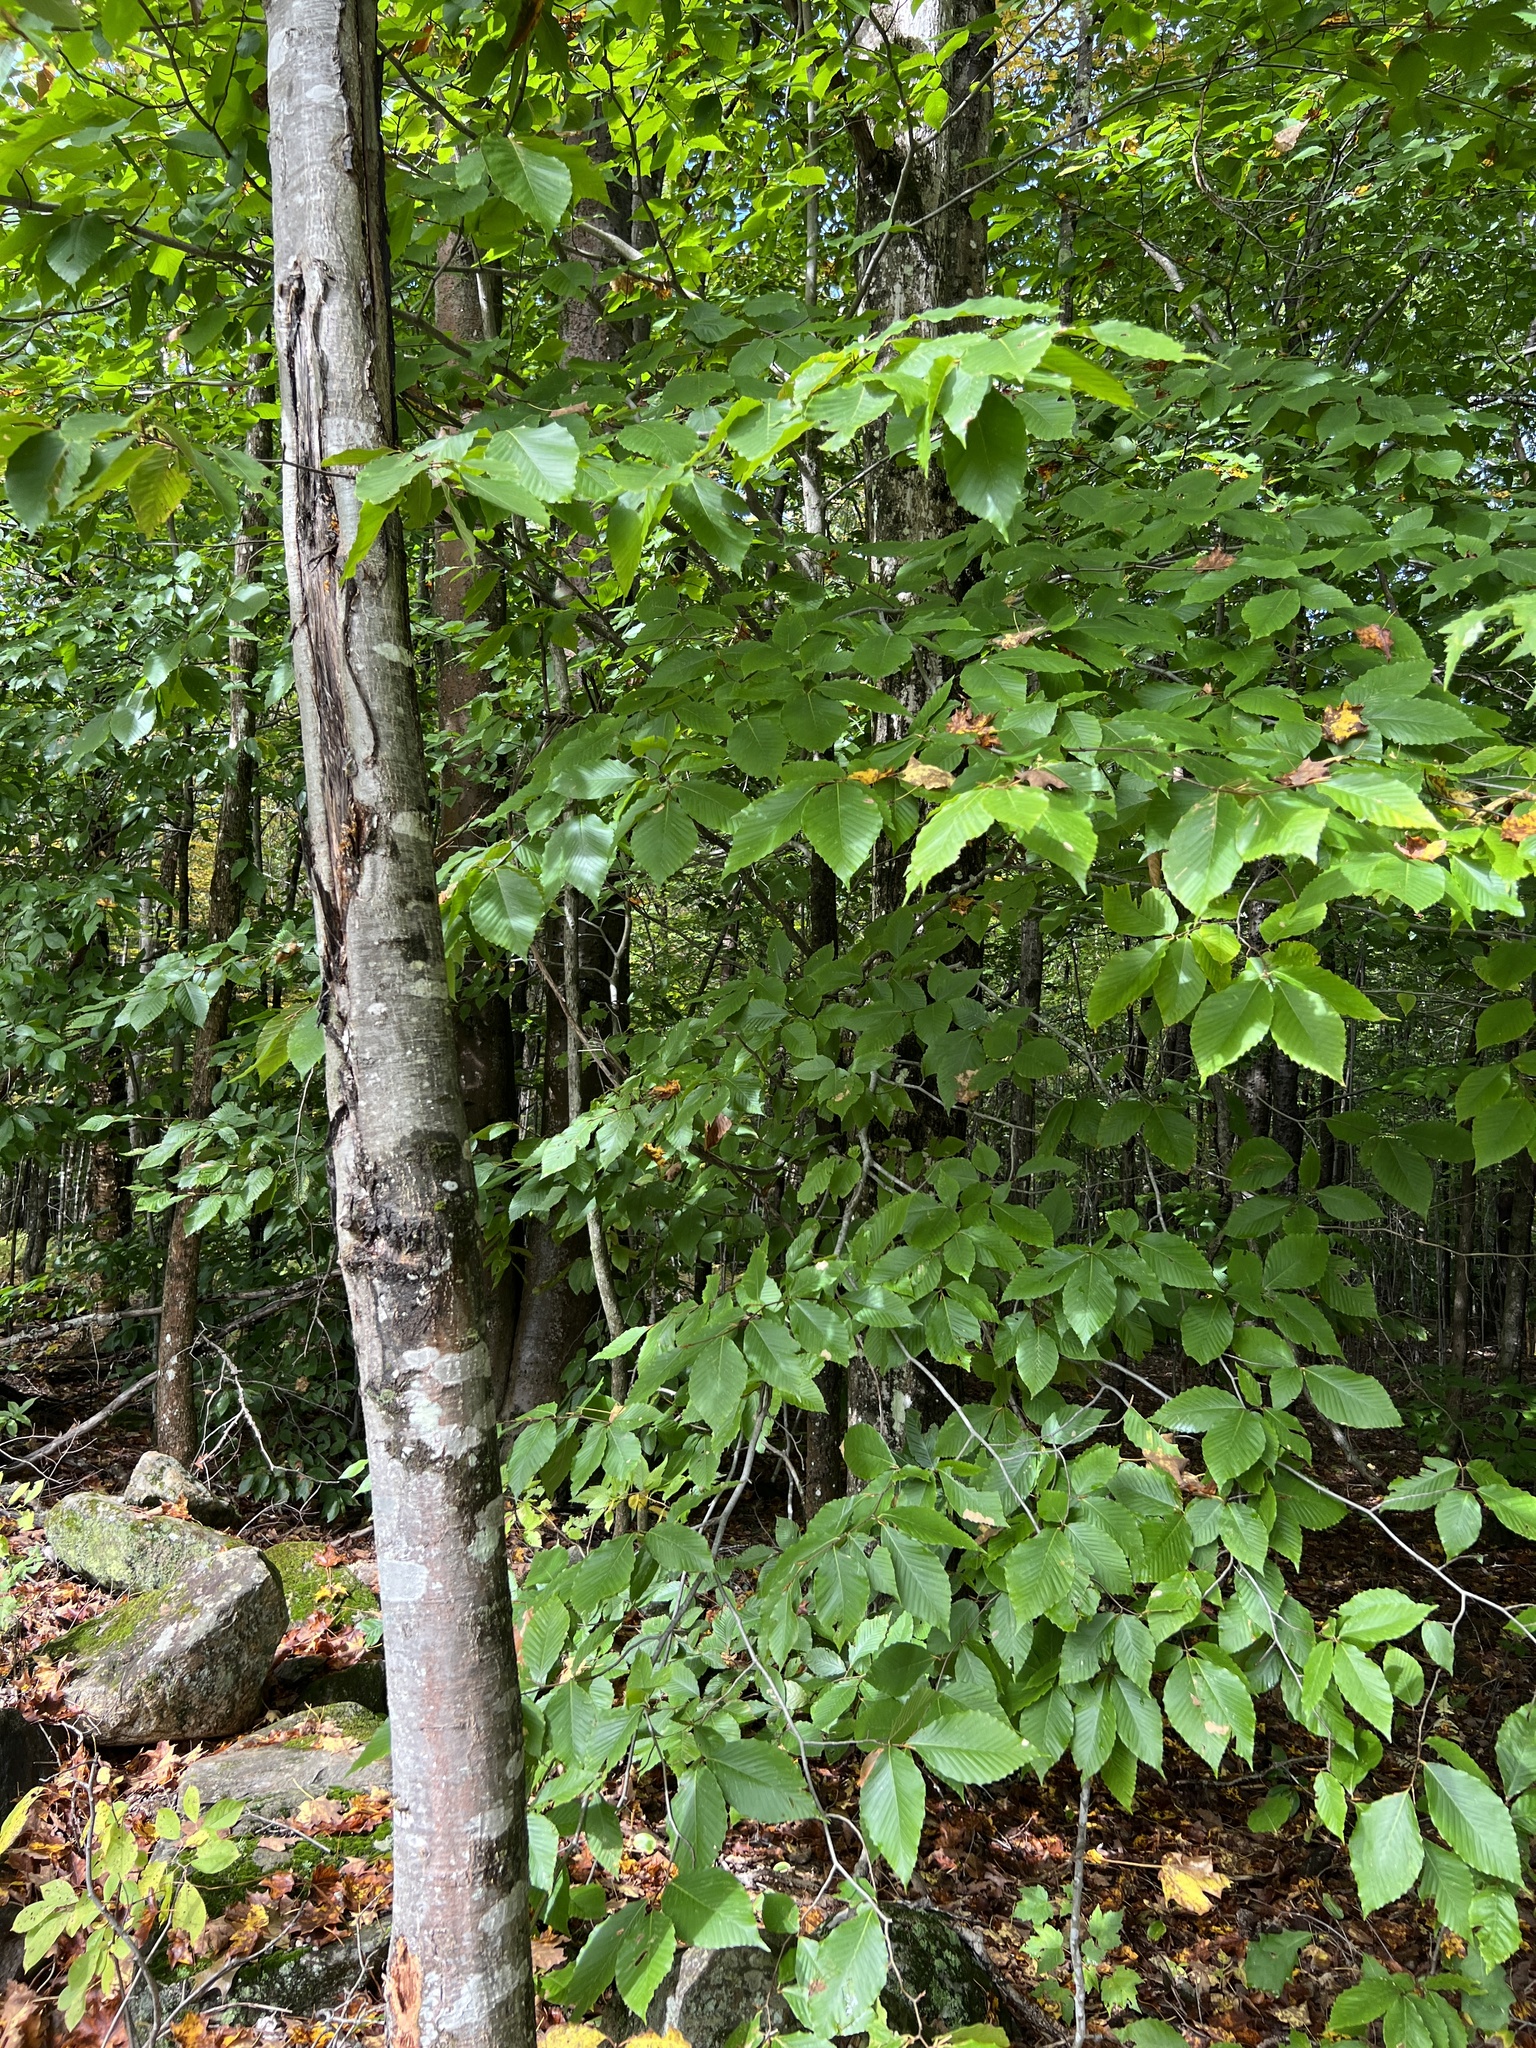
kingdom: Plantae
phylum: Tracheophyta
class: Magnoliopsida
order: Fagales
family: Fagaceae
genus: Fagus
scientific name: Fagus grandifolia
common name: American beech
